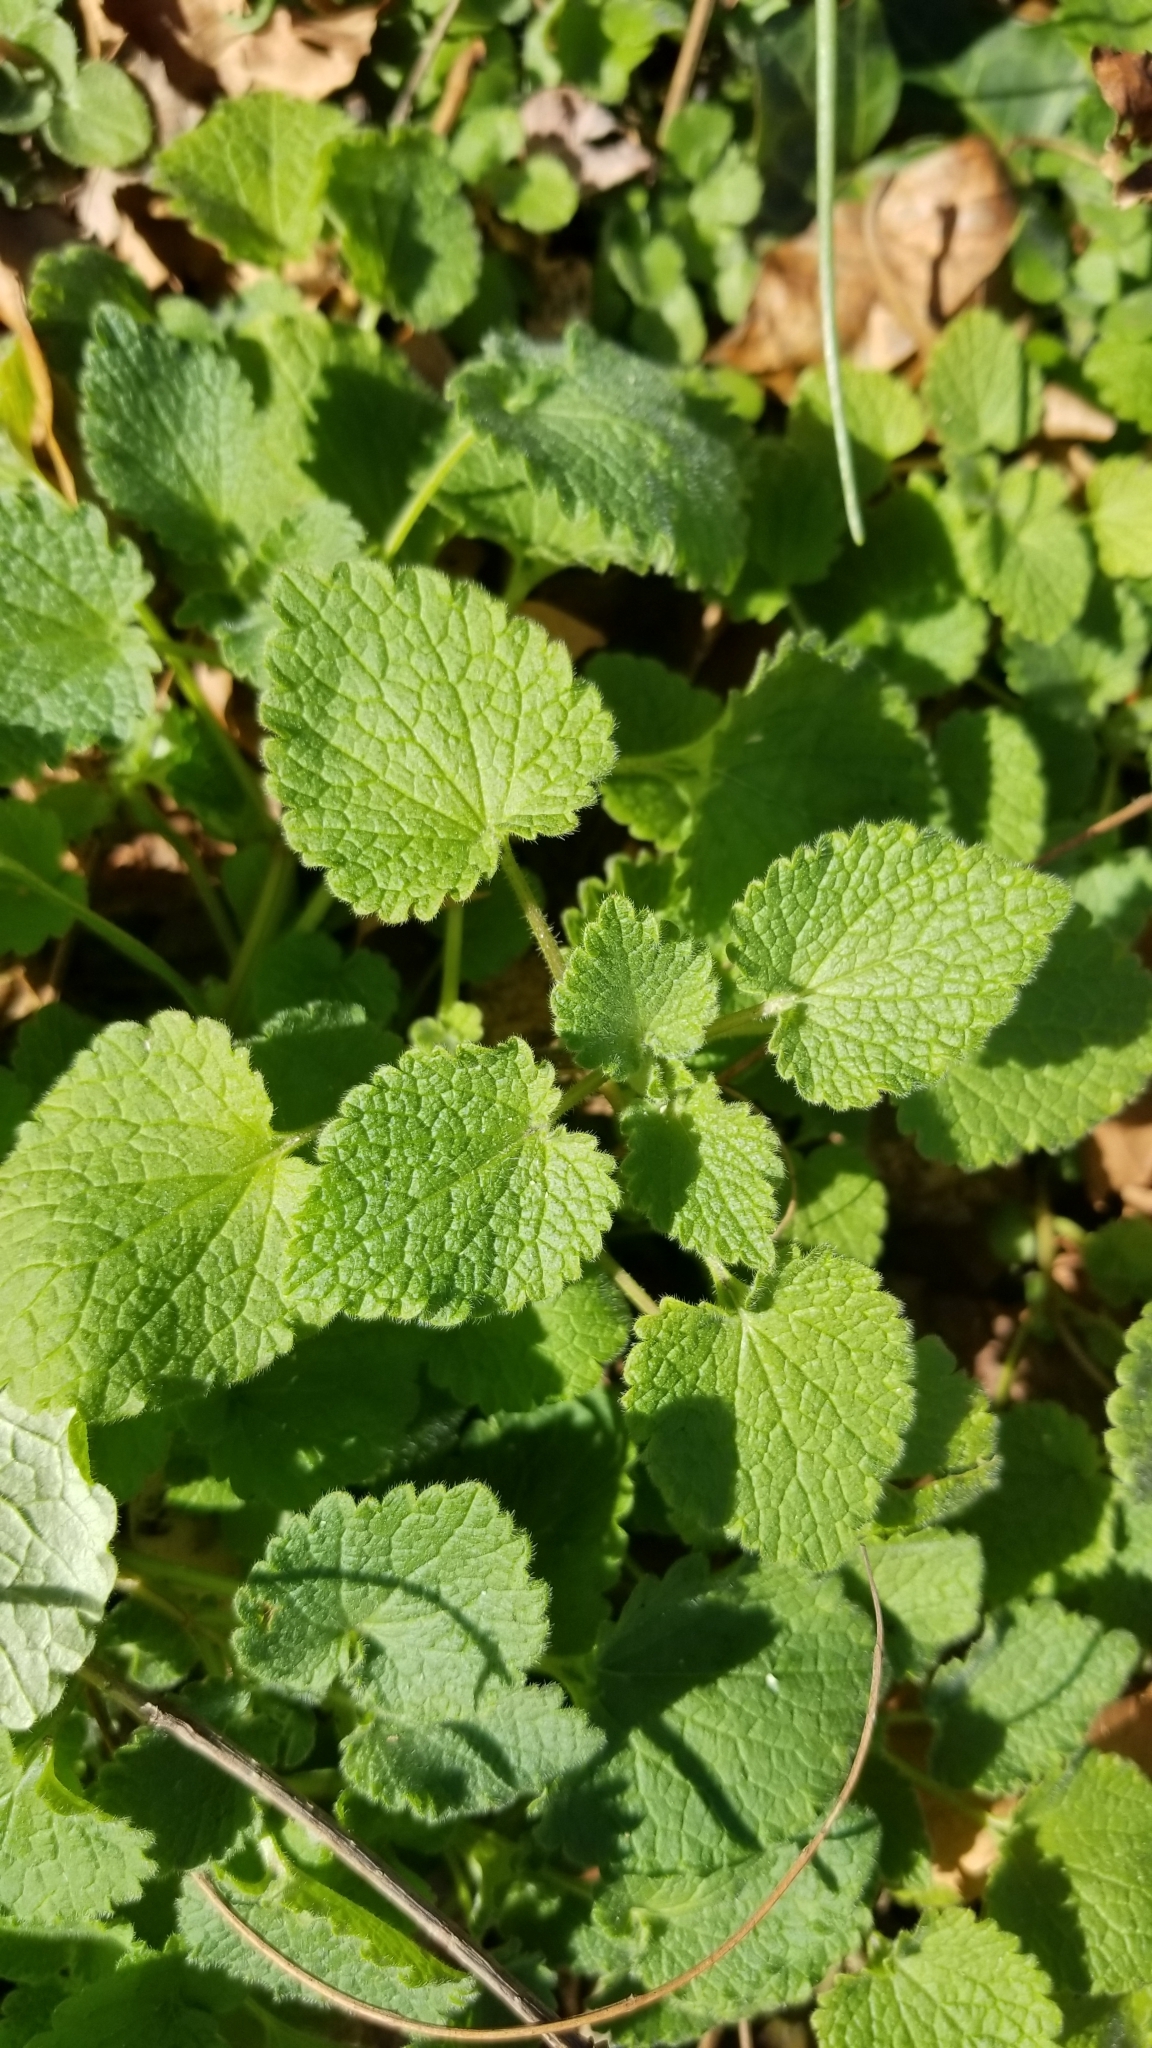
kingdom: Plantae
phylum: Tracheophyta
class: Magnoliopsida
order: Lamiales
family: Lamiaceae
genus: Lamium
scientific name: Lamium purpureum
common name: Red dead-nettle
